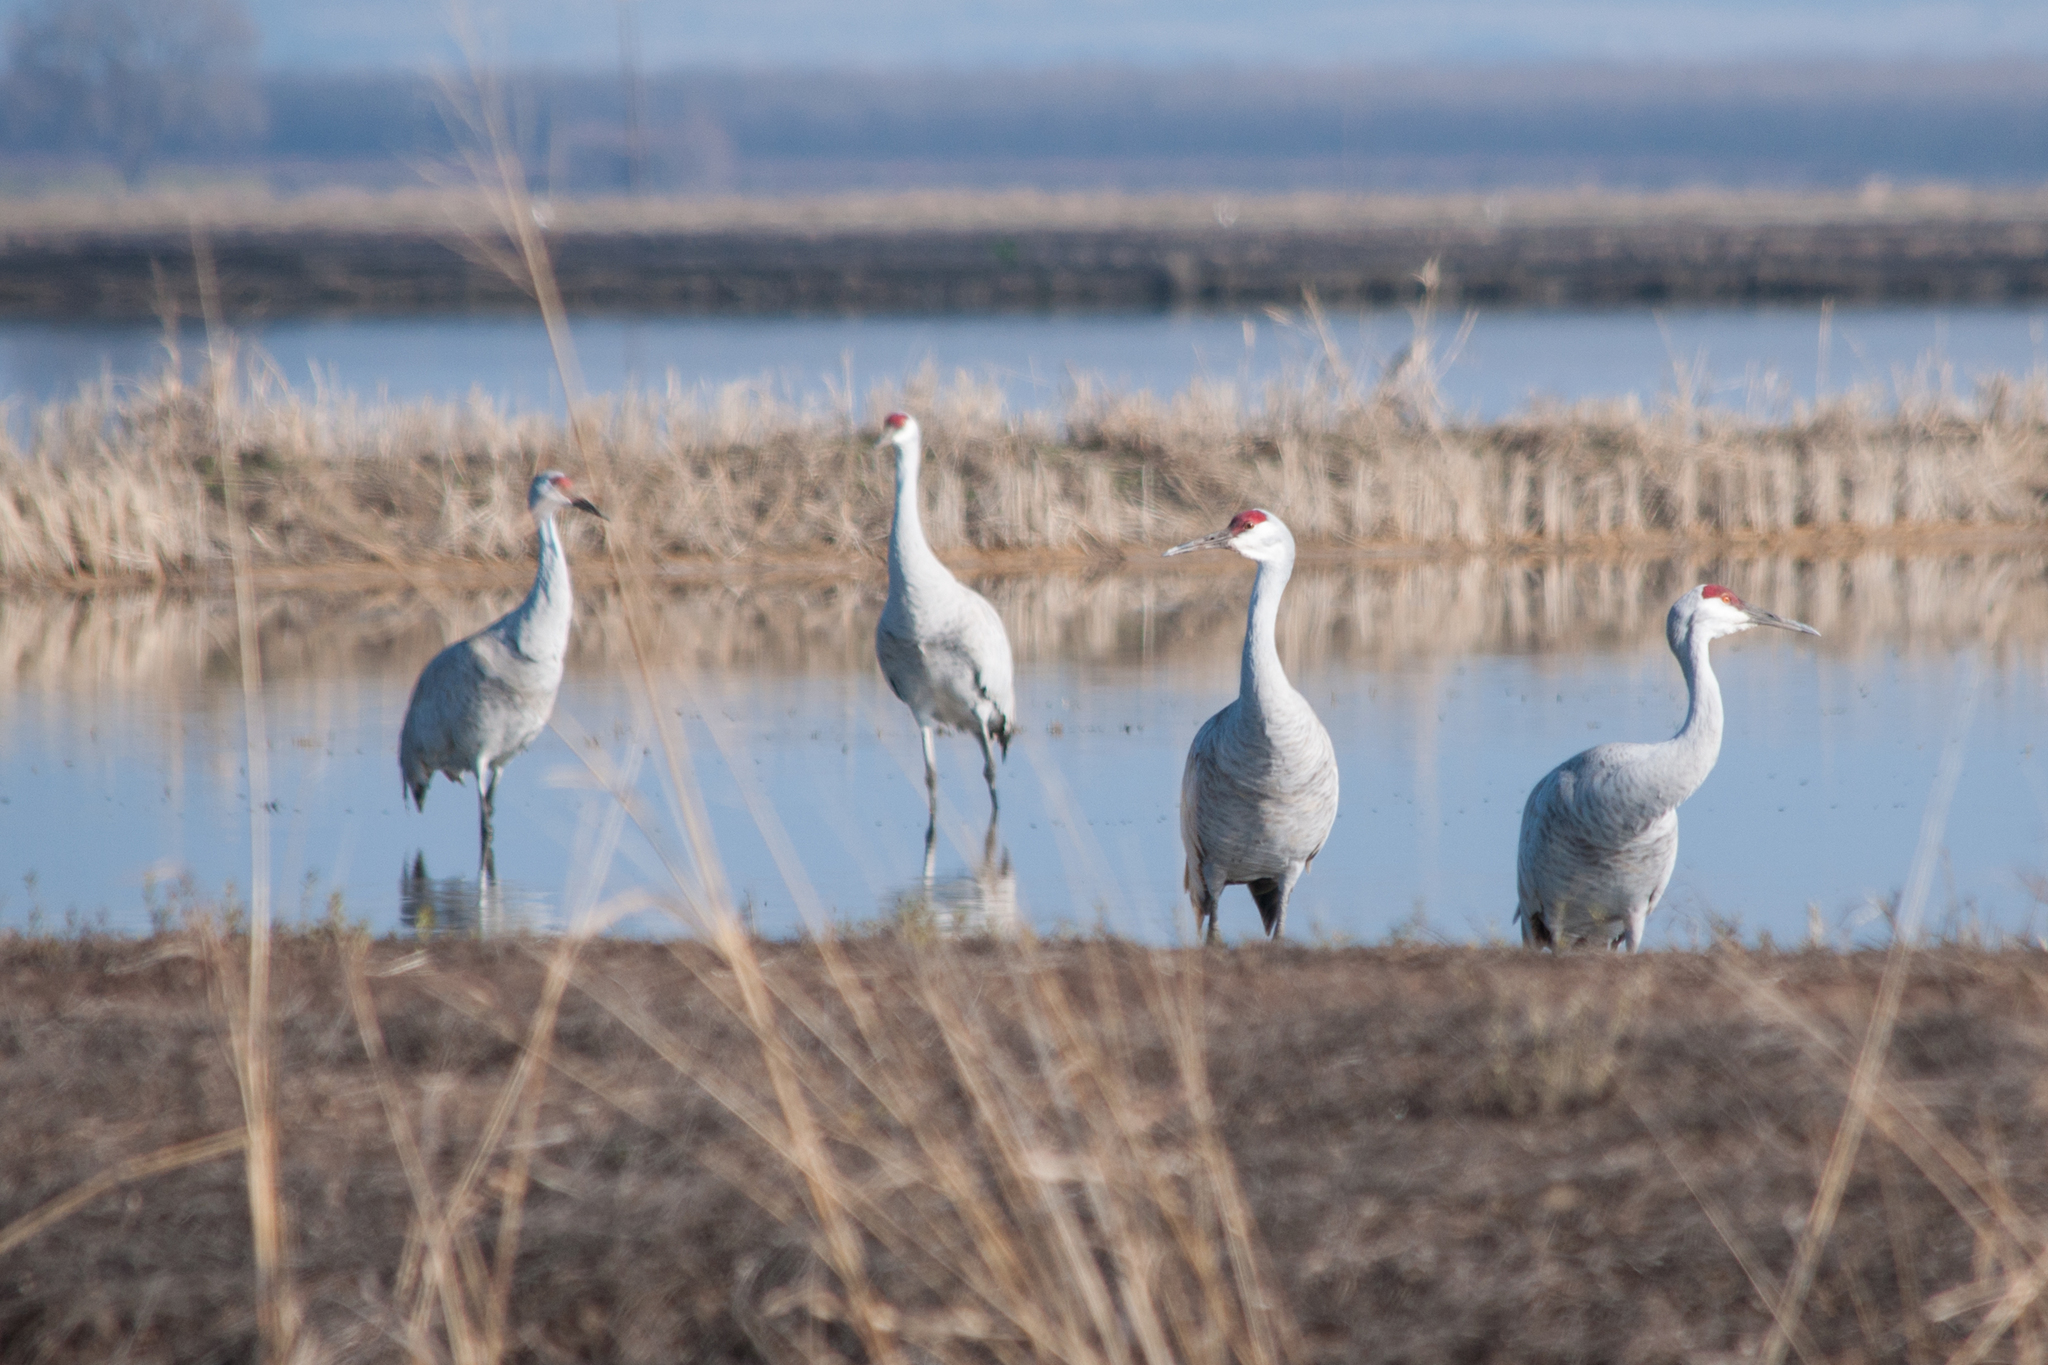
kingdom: Animalia
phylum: Chordata
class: Aves
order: Gruiformes
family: Gruidae
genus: Grus
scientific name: Grus canadensis
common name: Sandhill crane
